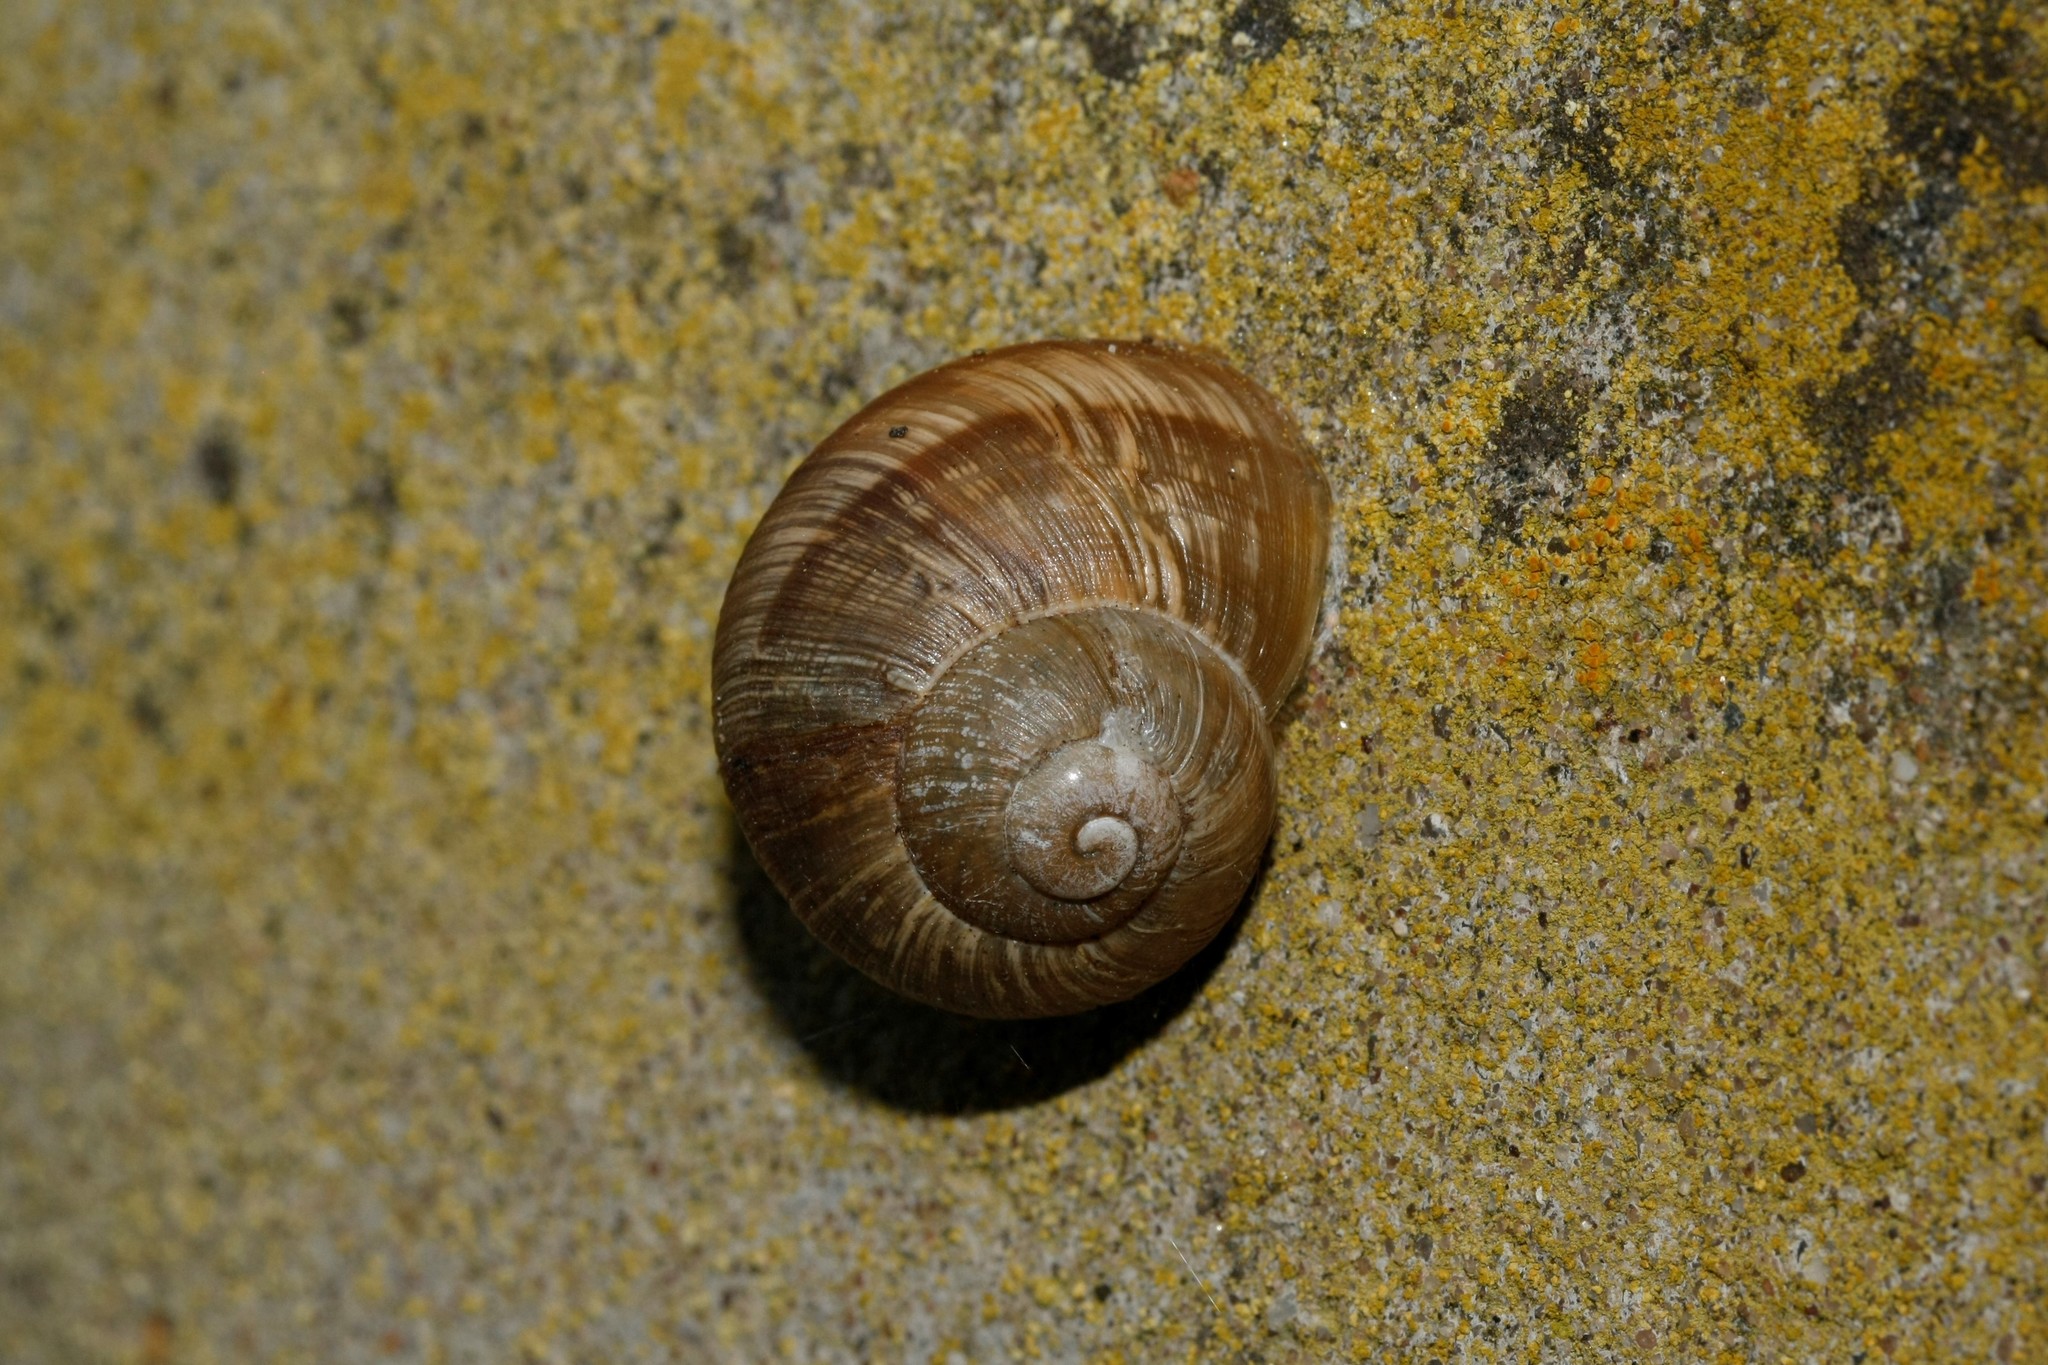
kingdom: Animalia
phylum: Mollusca
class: Gastropoda
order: Stylommatophora
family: Helicidae
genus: Helix
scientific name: Helix pomatia
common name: Roman snail
